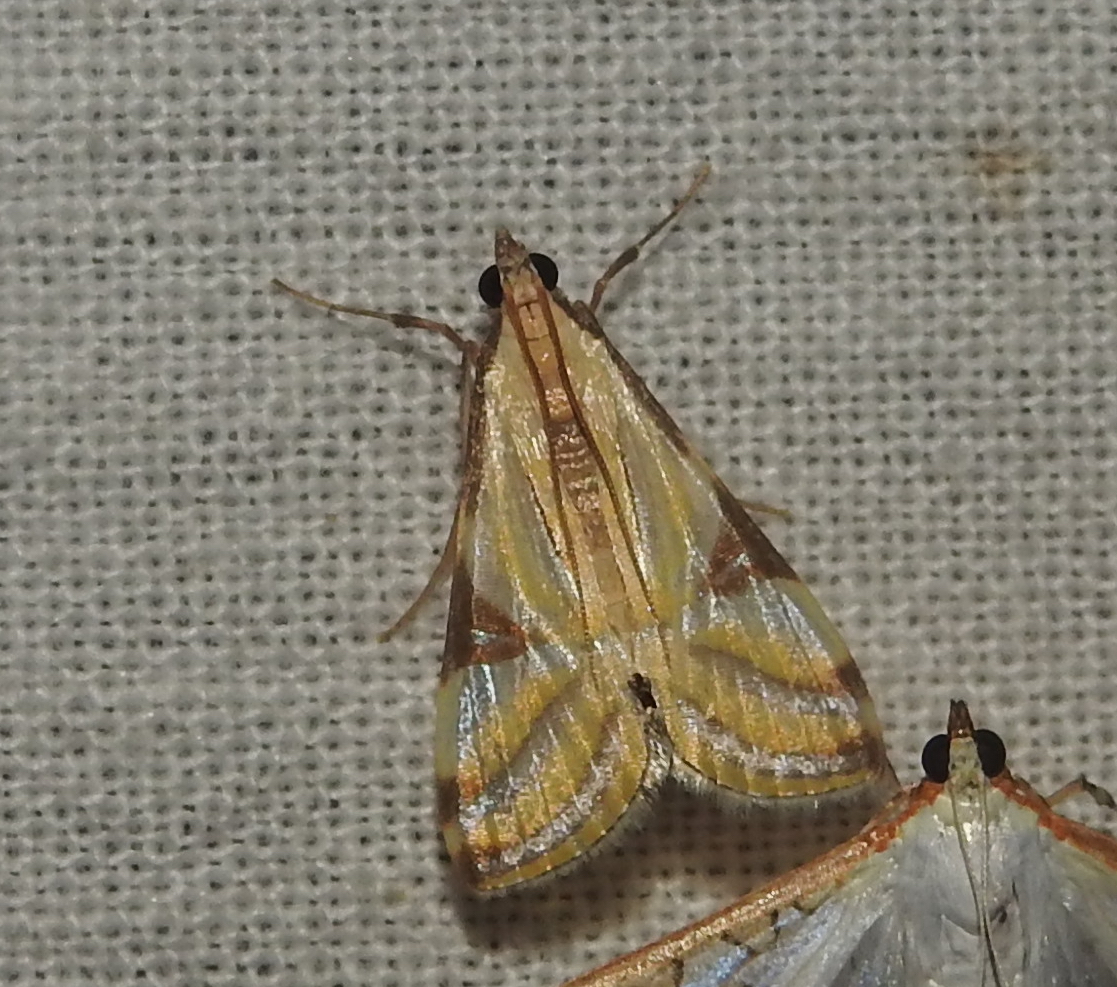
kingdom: Animalia
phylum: Arthropoda
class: Insecta
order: Lepidoptera
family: Crambidae
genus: Talanga
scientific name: Talanga sexpunctalis
